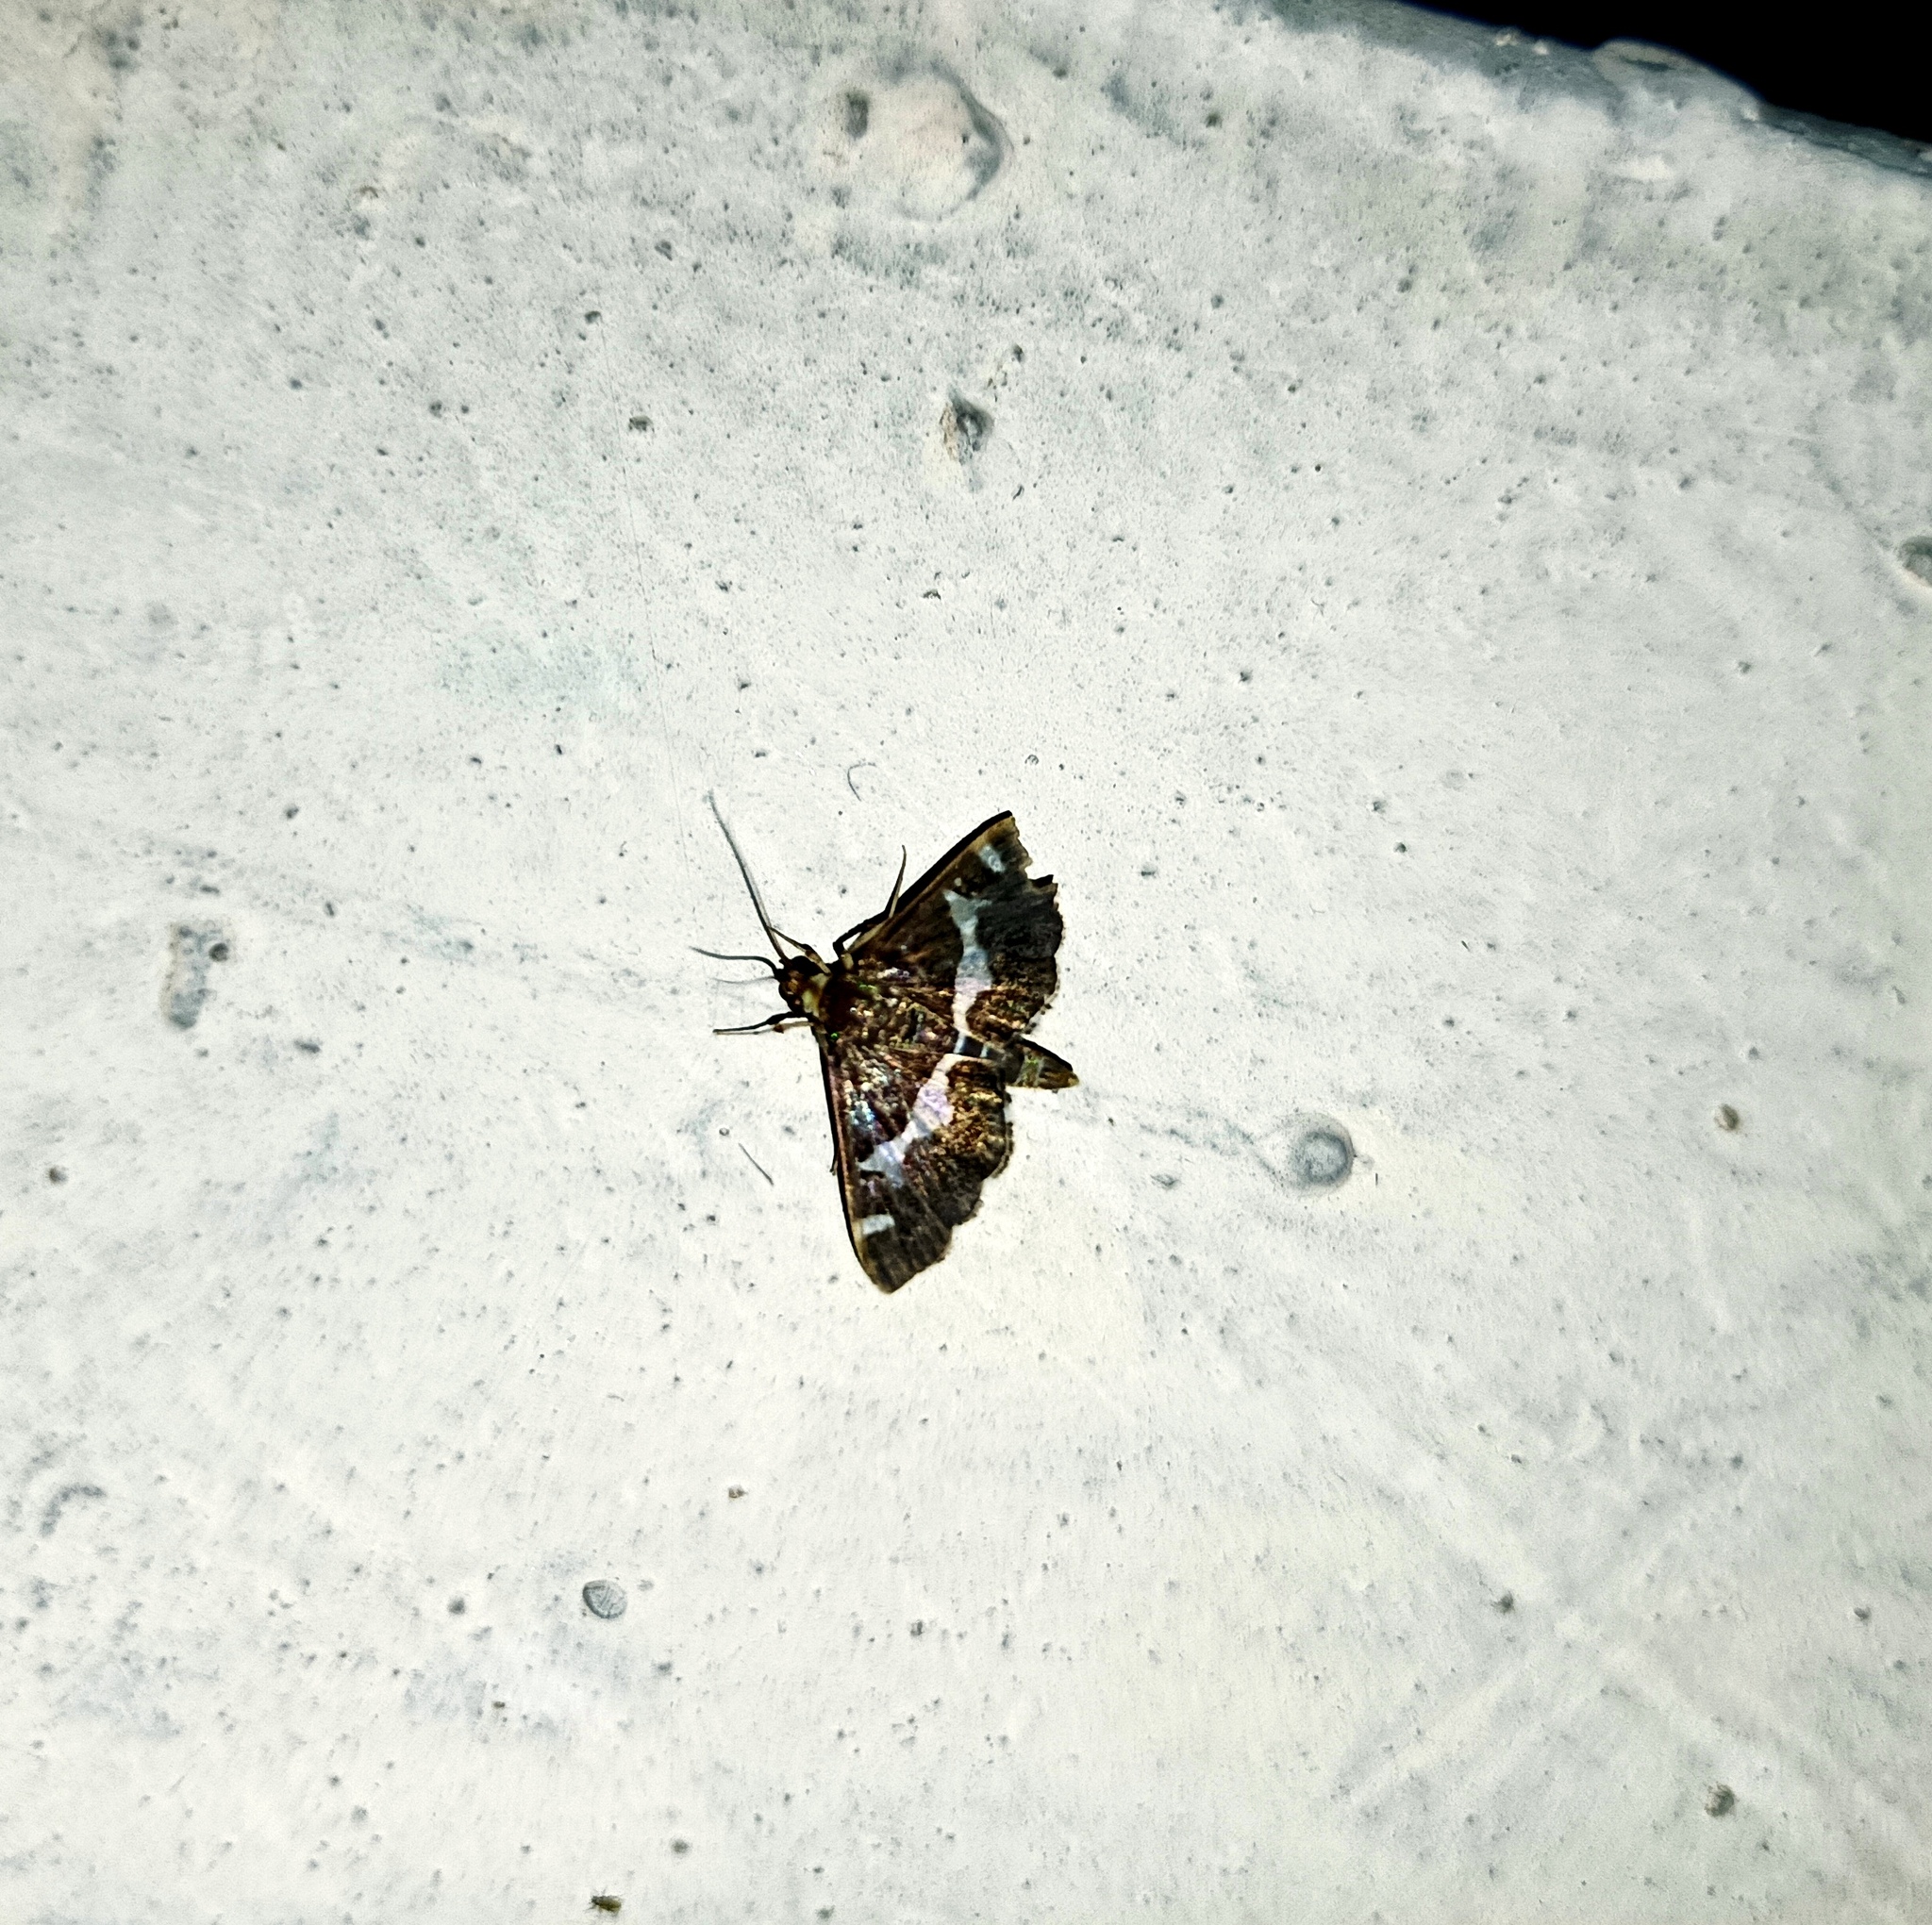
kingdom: Animalia
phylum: Arthropoda
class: Insecta
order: Lepidoptera
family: Crambidae
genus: Spoladea
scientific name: Spoladea recurvalis
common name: Beet webworm moth
